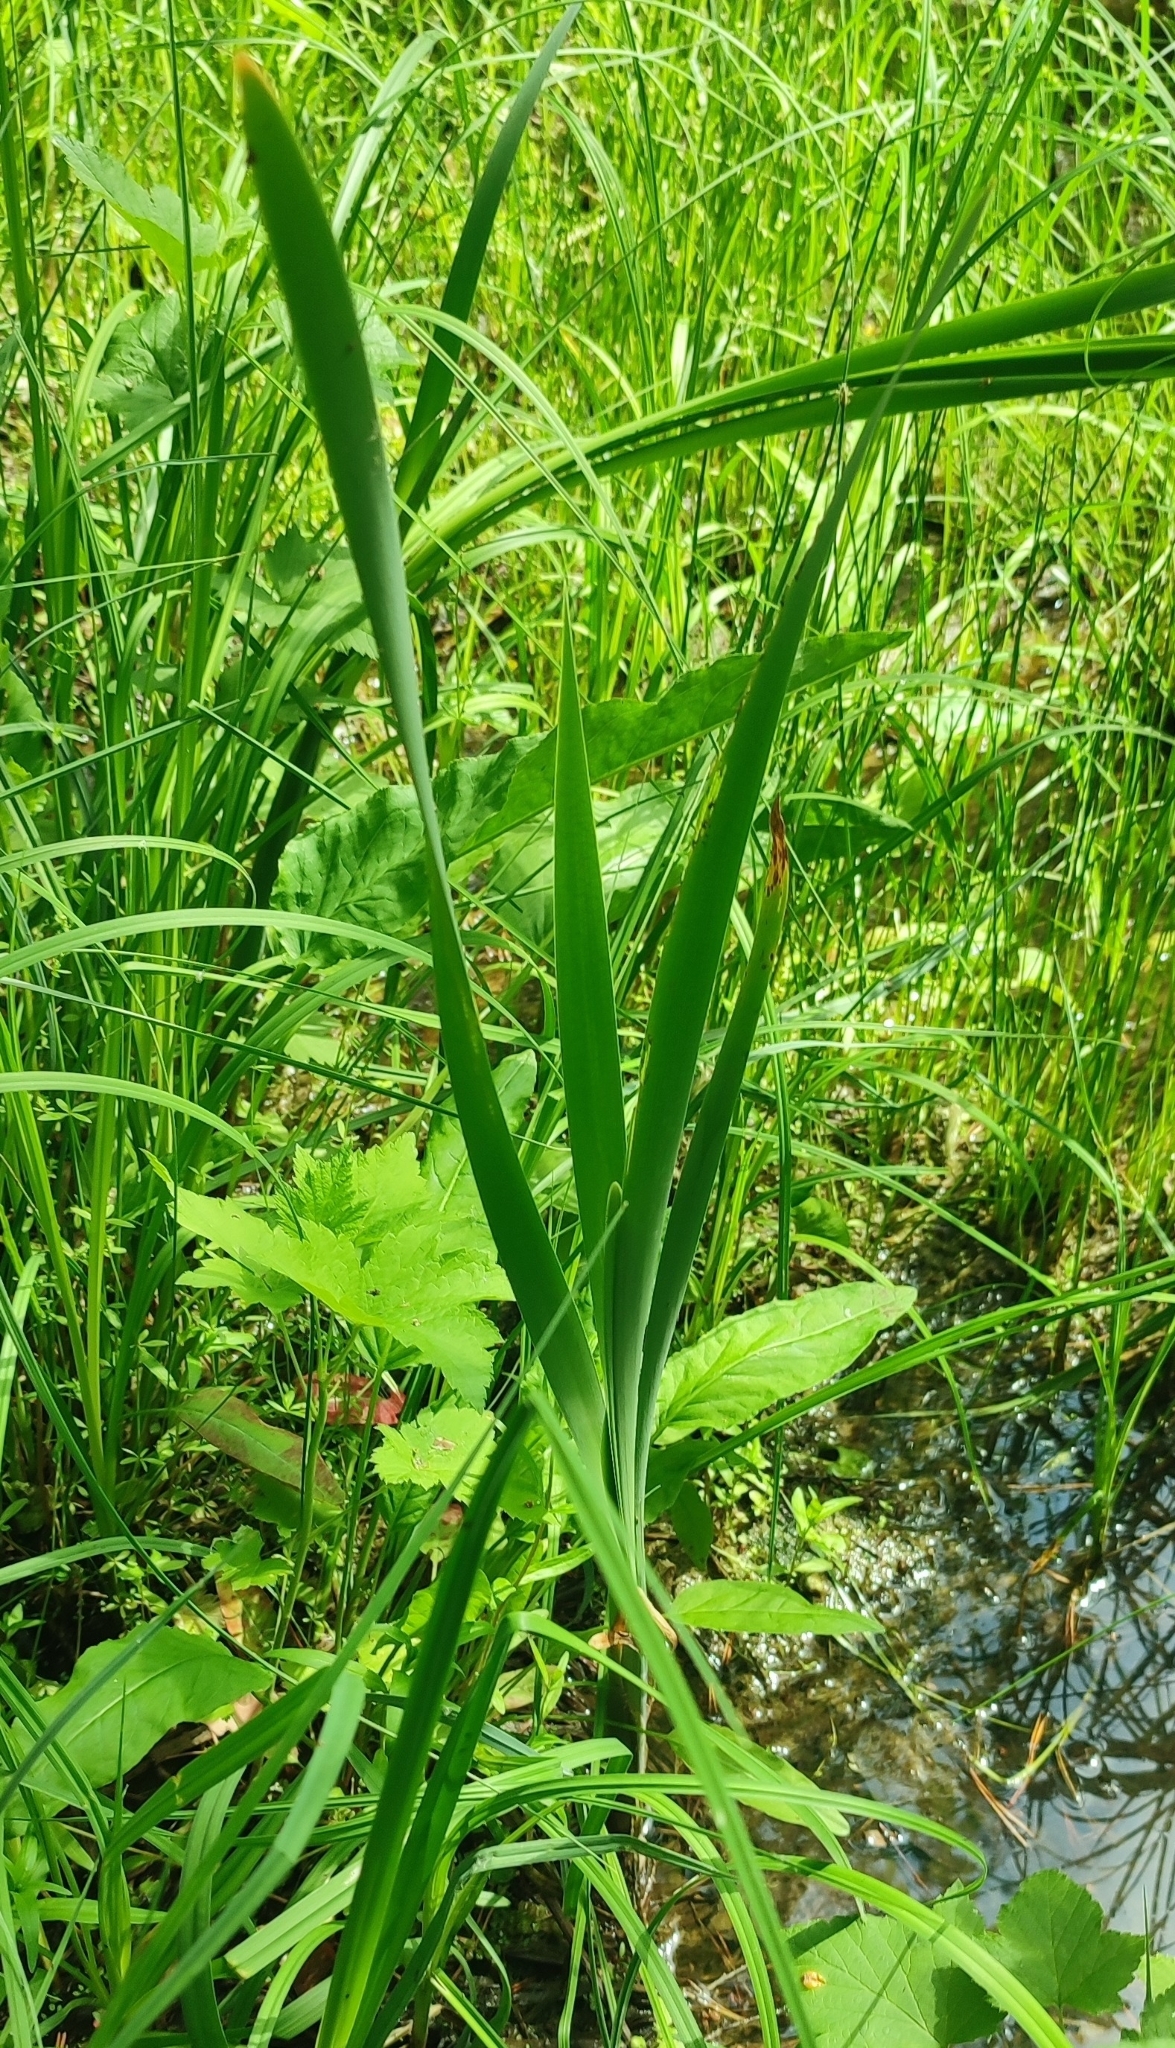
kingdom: Plantae
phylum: Tracheophyta
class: Liliopsida
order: Poales
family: Typhaceae
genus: Typha
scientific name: Typha latifolia
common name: Broadleaf cattail
